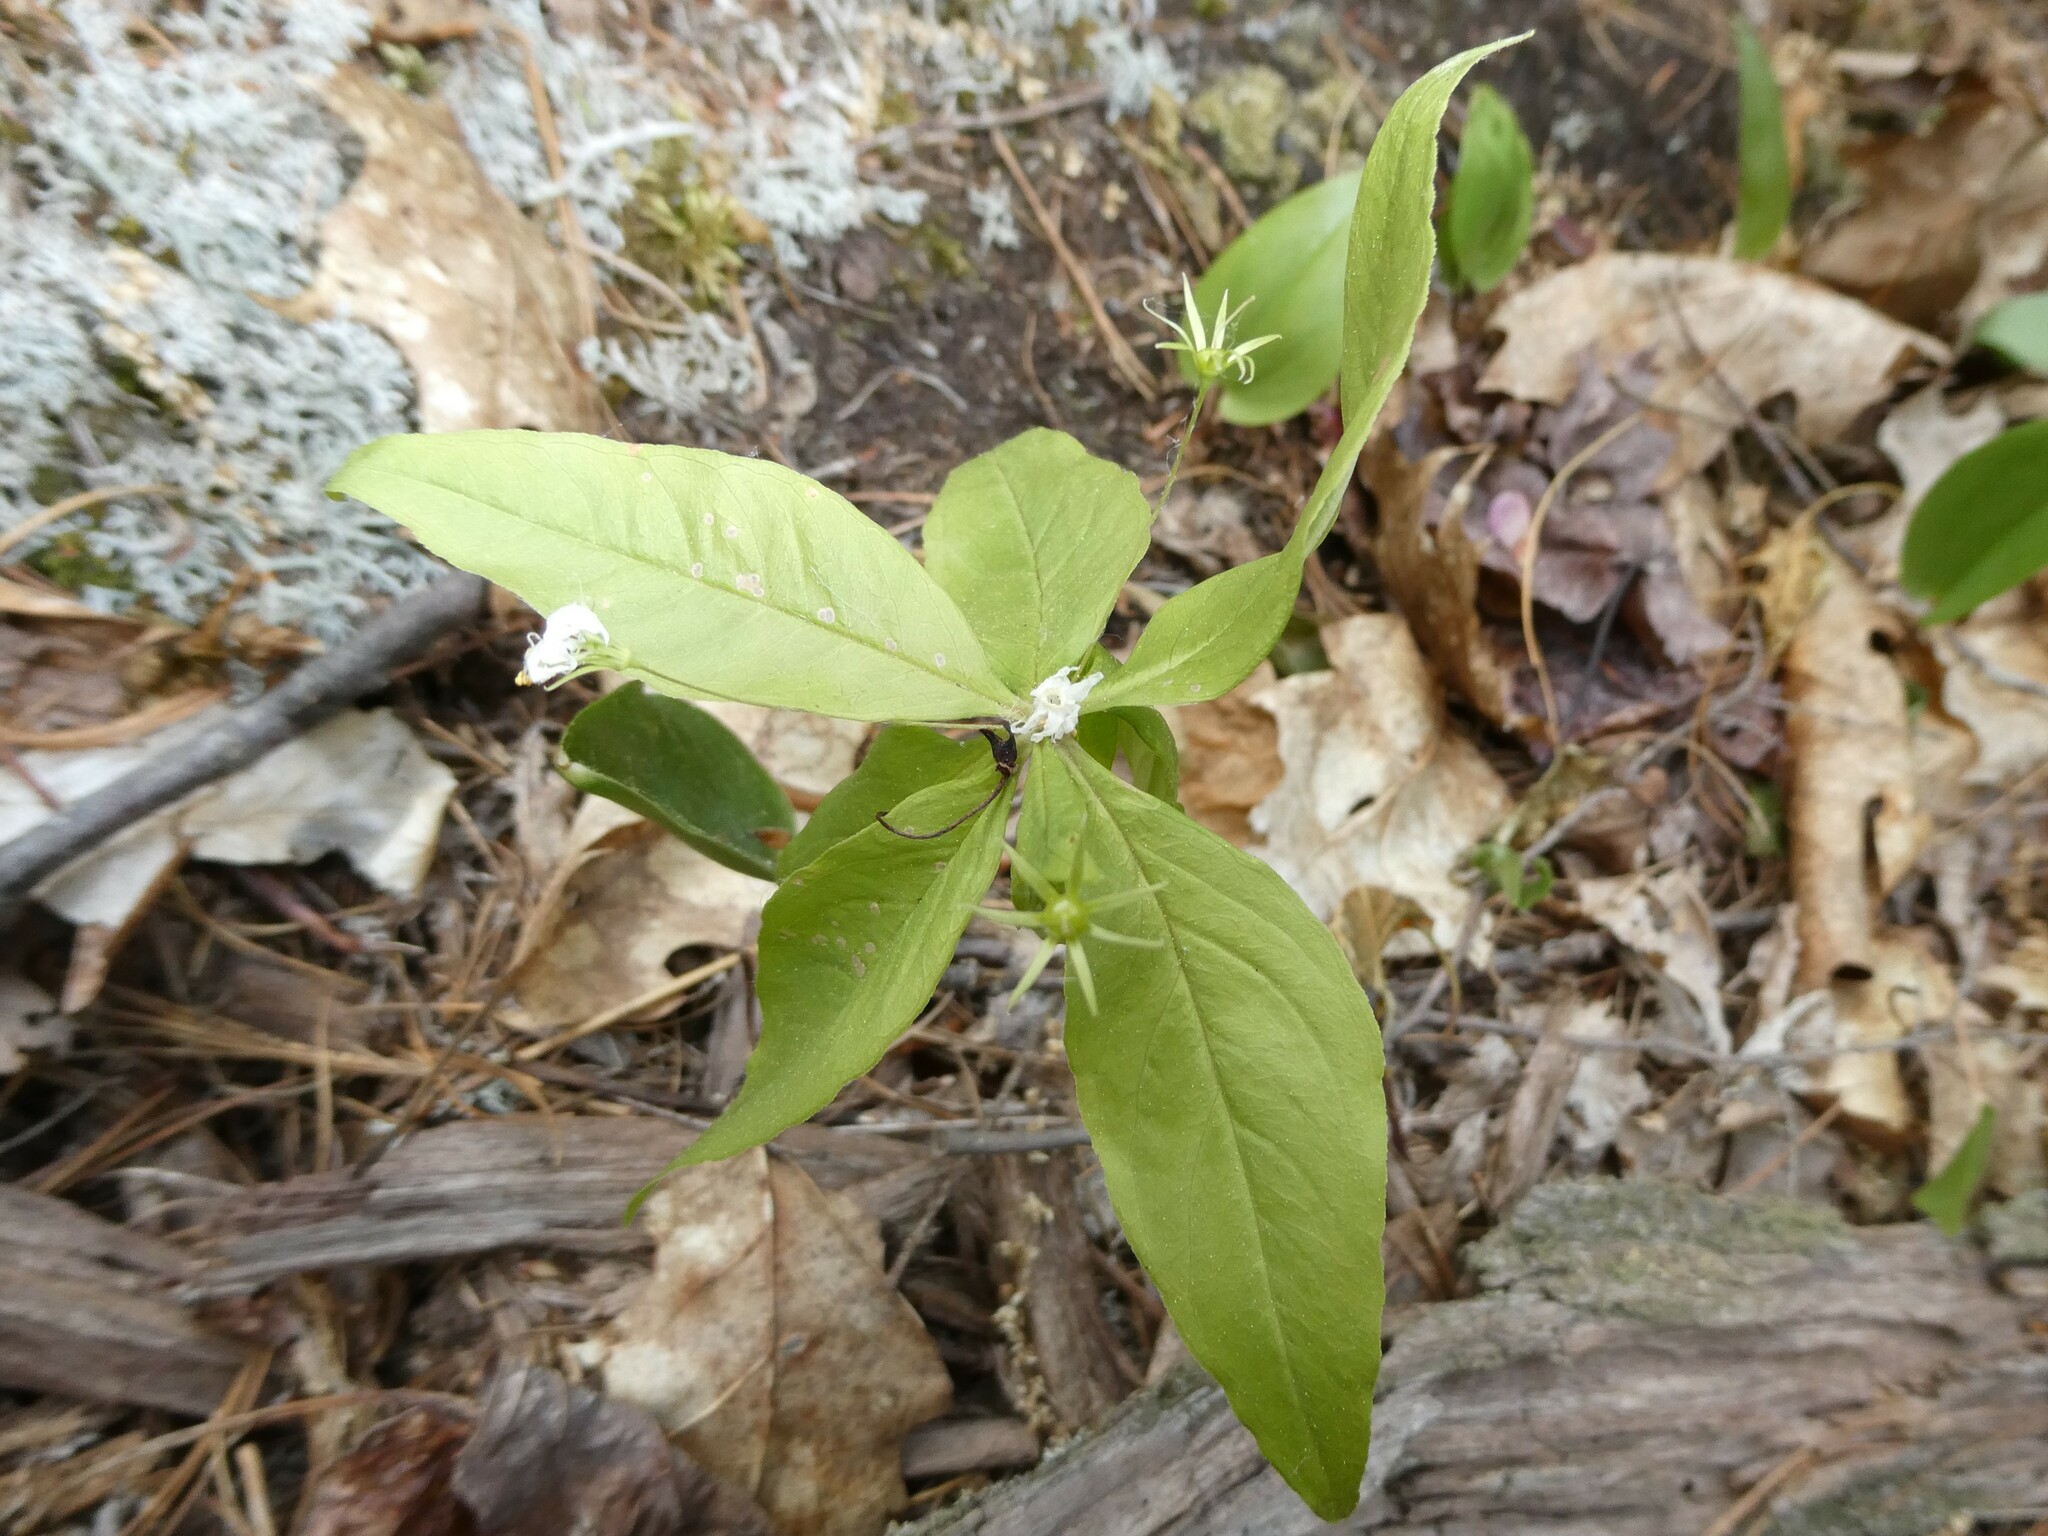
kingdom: Plantae
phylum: Tracheophyta
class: Magnoliopsida
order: Ericales
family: Primulaceae
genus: Lysimachia
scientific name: Lysimachia borealis
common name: American starflower
